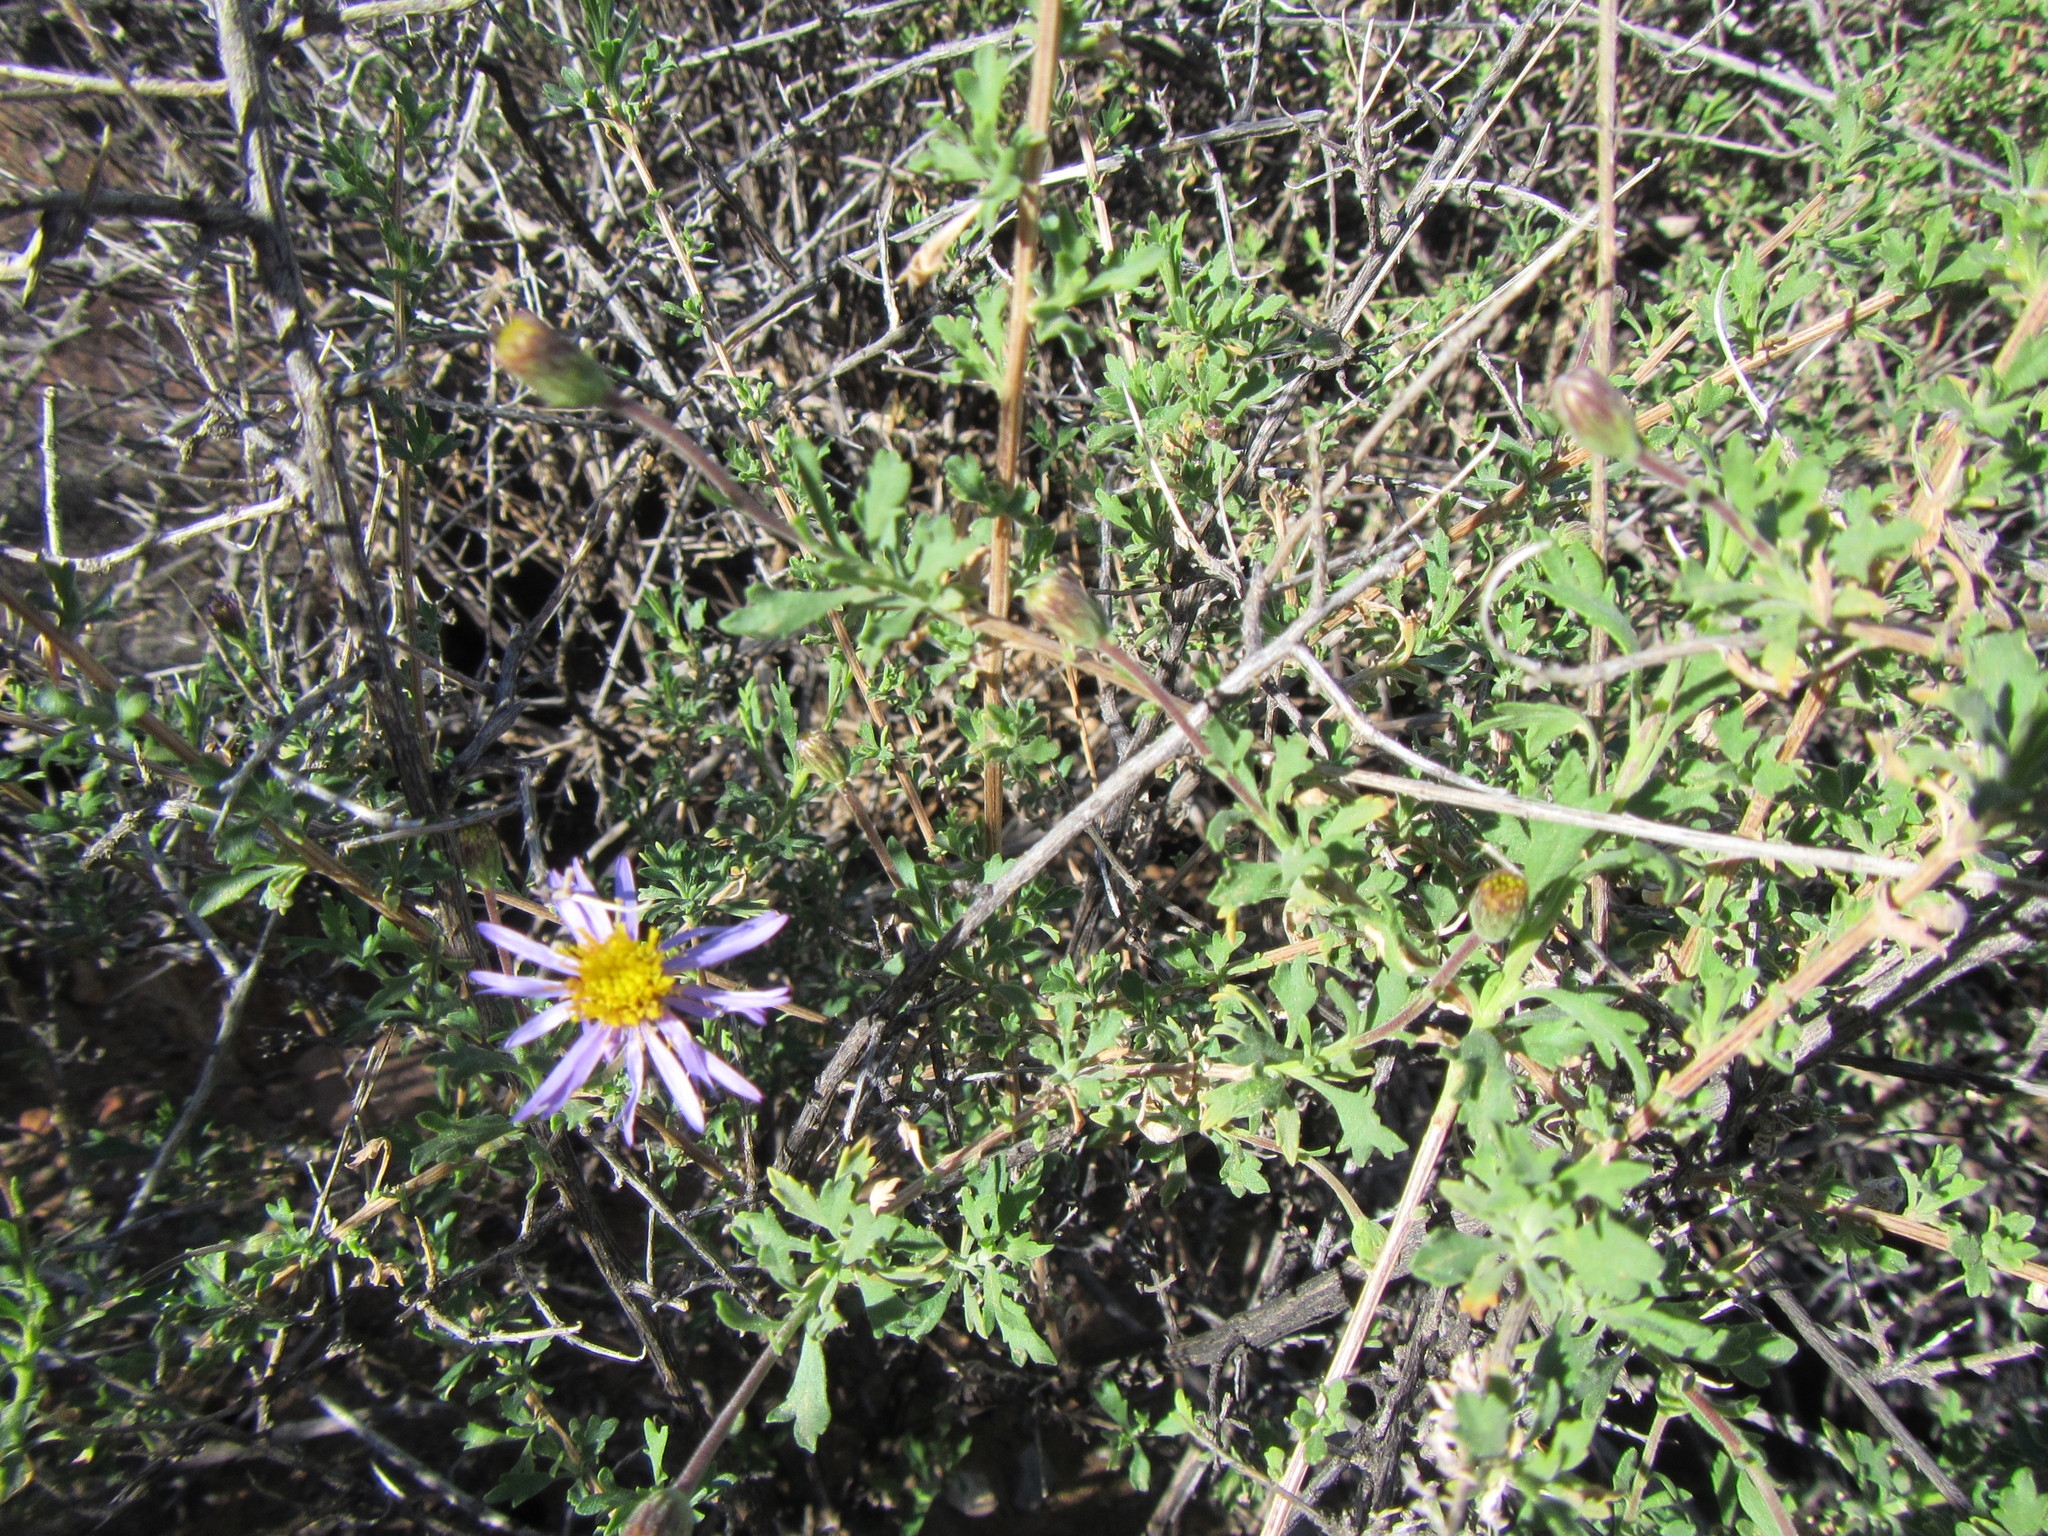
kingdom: Plantae
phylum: Tracheophyta
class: Magnoliopsida
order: Asterales
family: Asteraceae
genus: Felicia
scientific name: Felicia brevifolia
